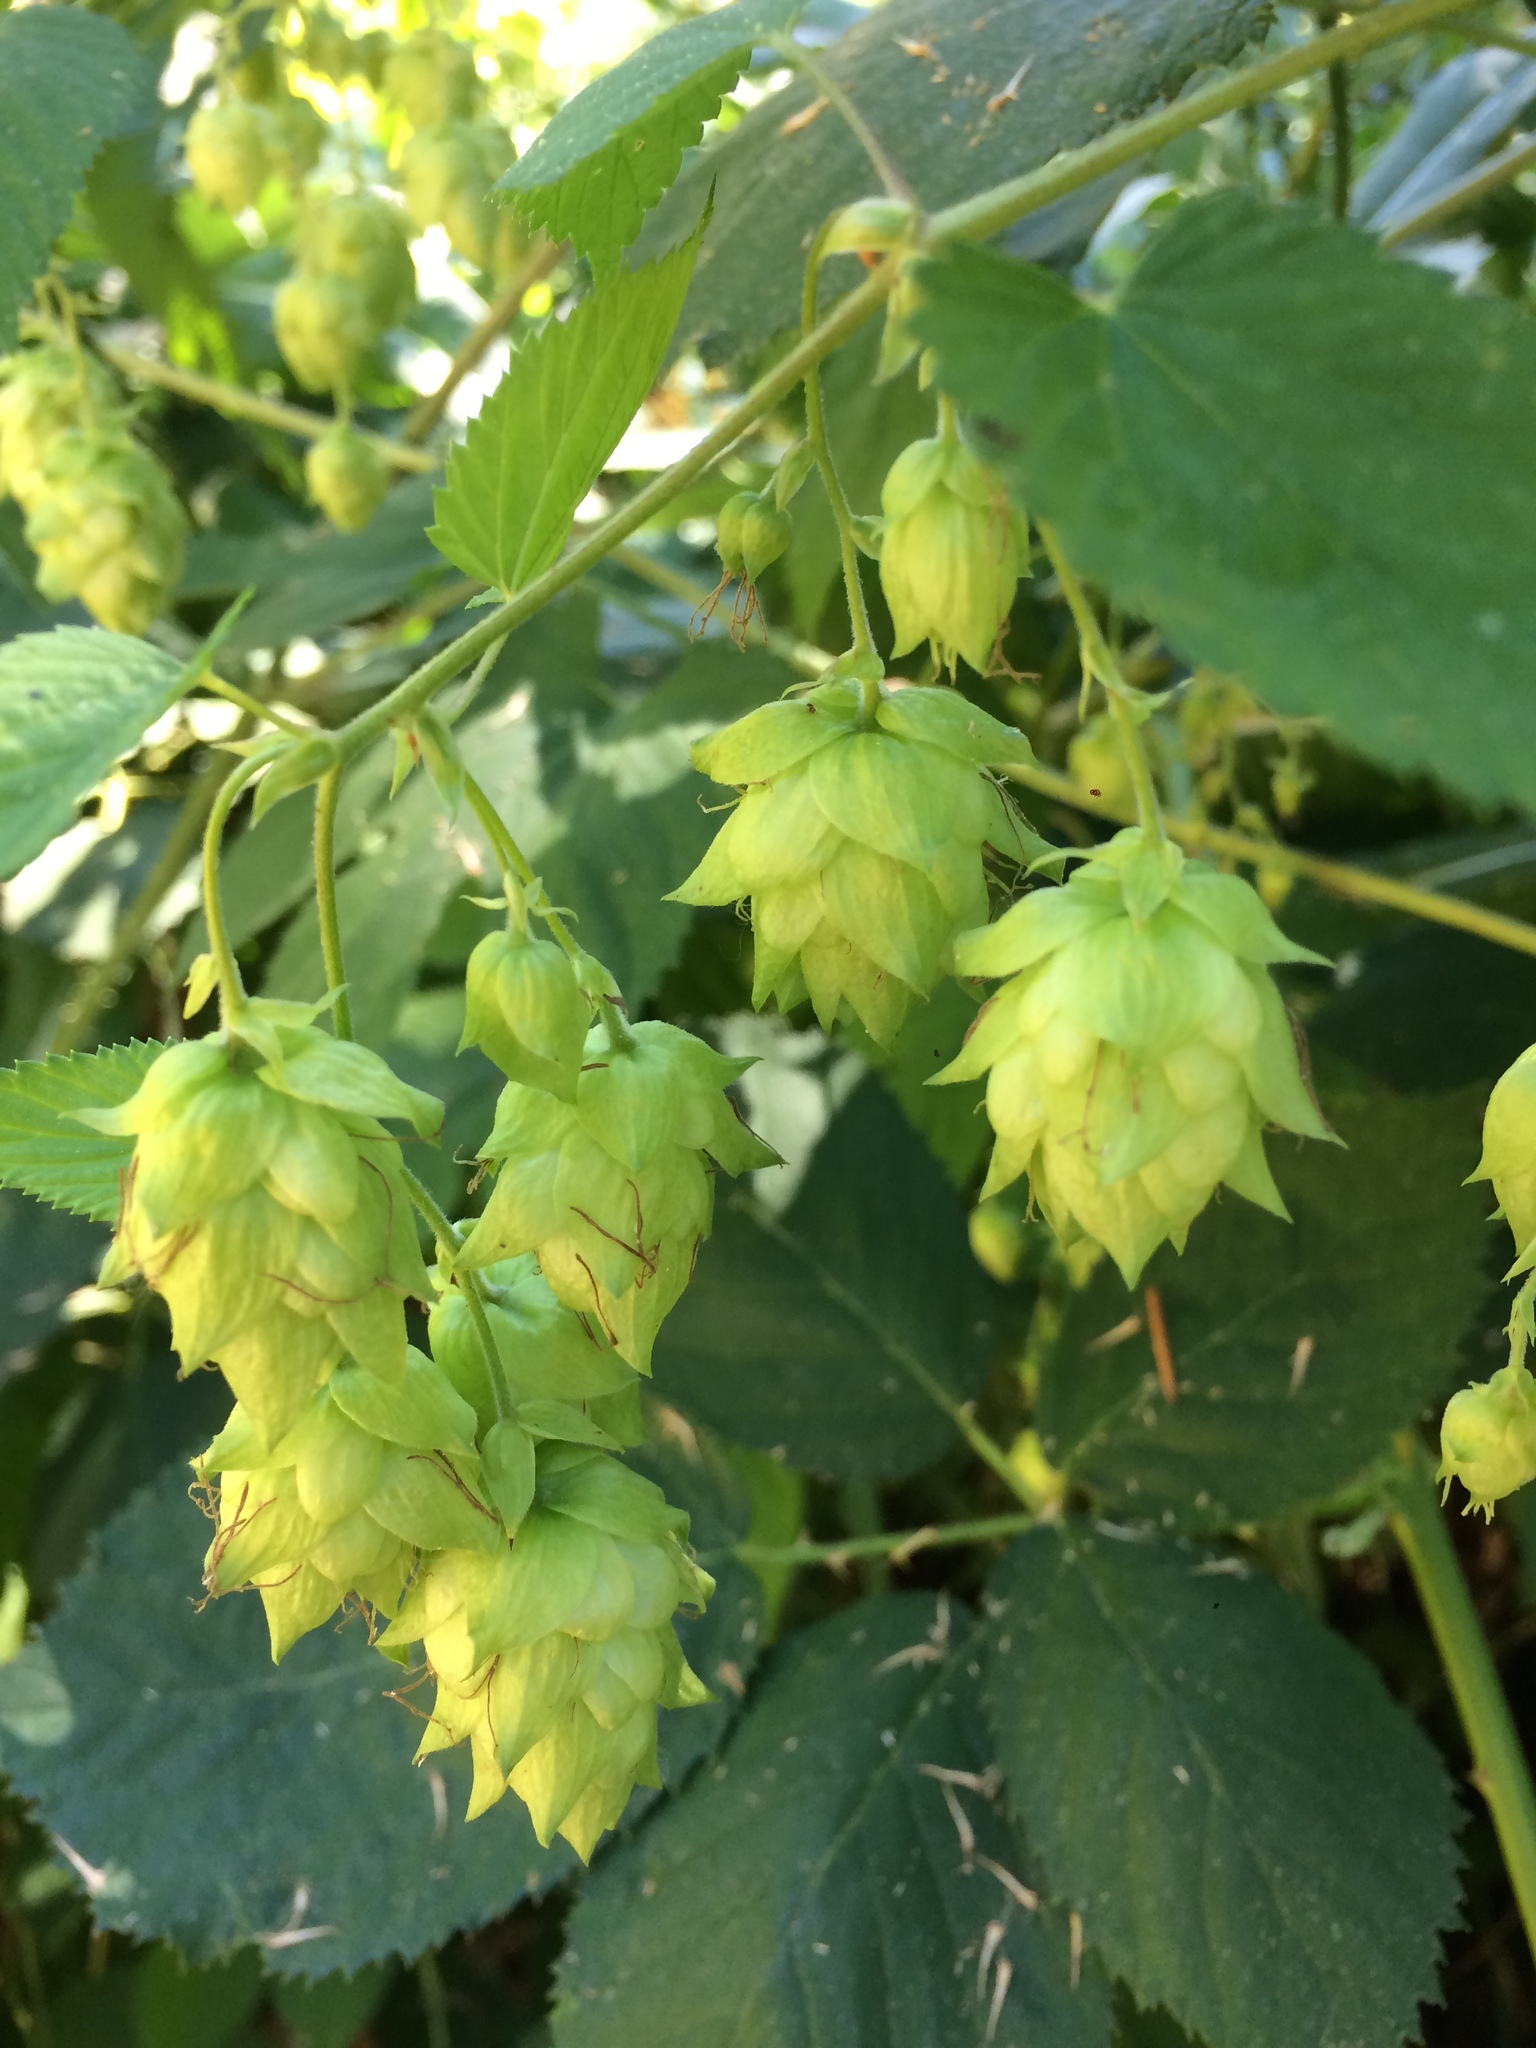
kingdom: Plantae
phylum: Tracheophyta
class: Magnoliopsida
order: Rosales
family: Cannabaceae
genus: Humulus
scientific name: Humulus lupulus
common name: Hop
